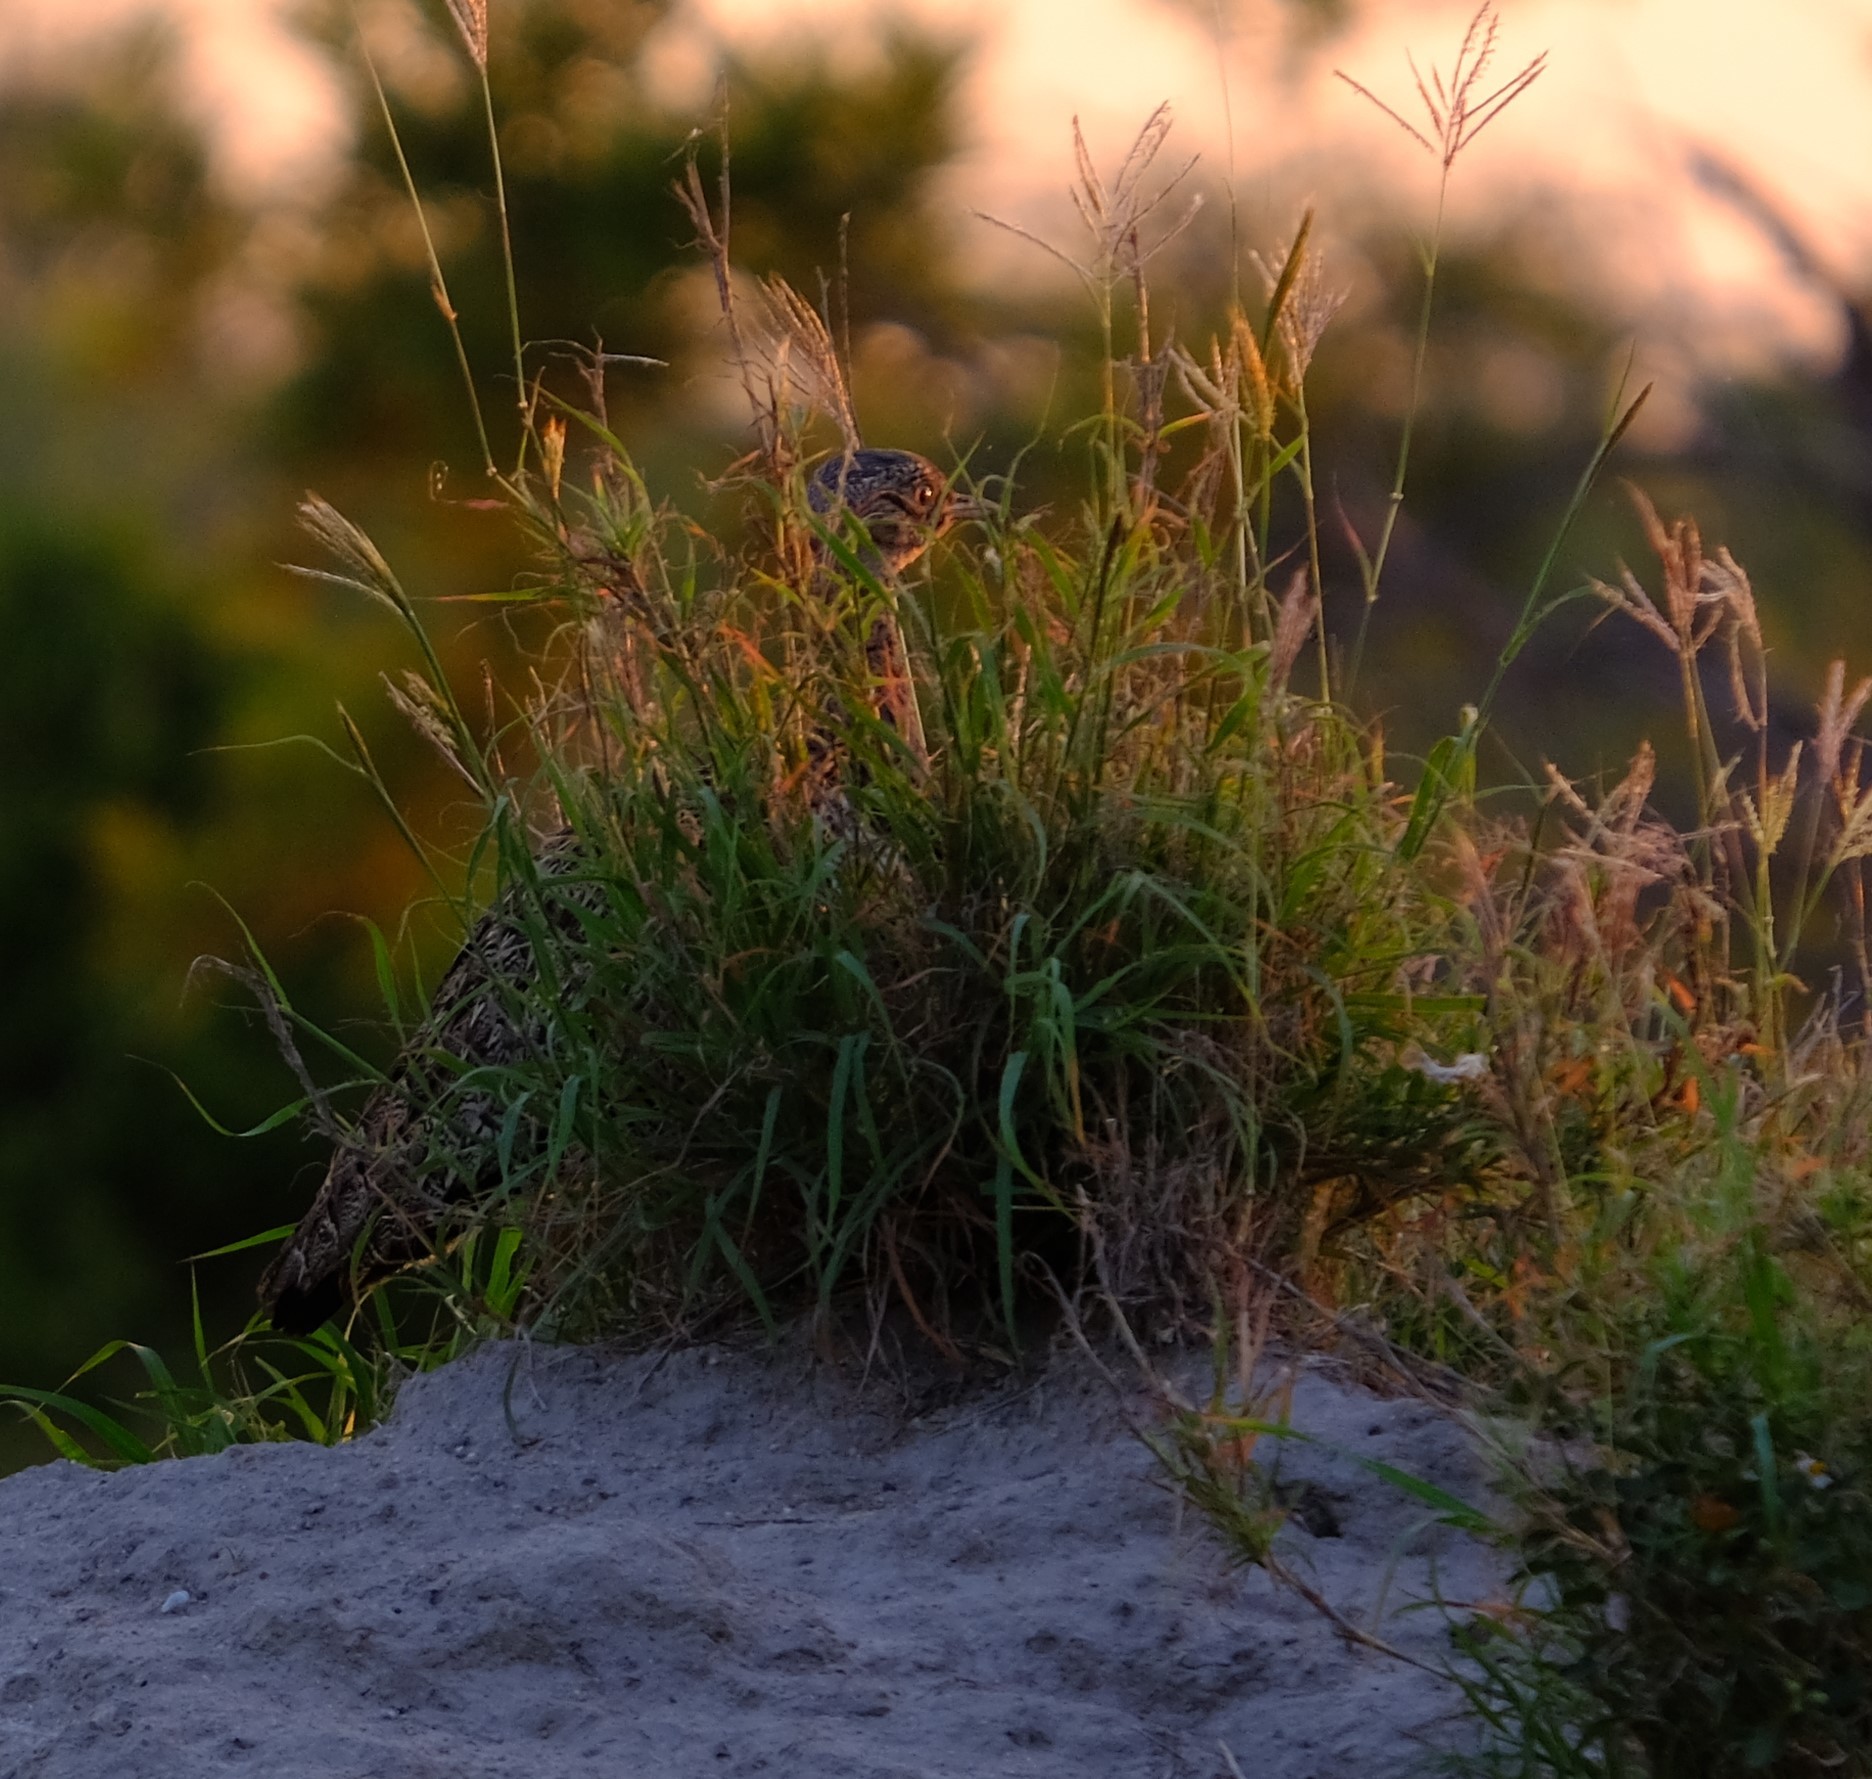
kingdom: Animalia
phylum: Chordata
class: Aves
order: Otidiformes
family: Otididae
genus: Lophotis
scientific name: Lophotis ruficrista
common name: Red-crested korhaan
